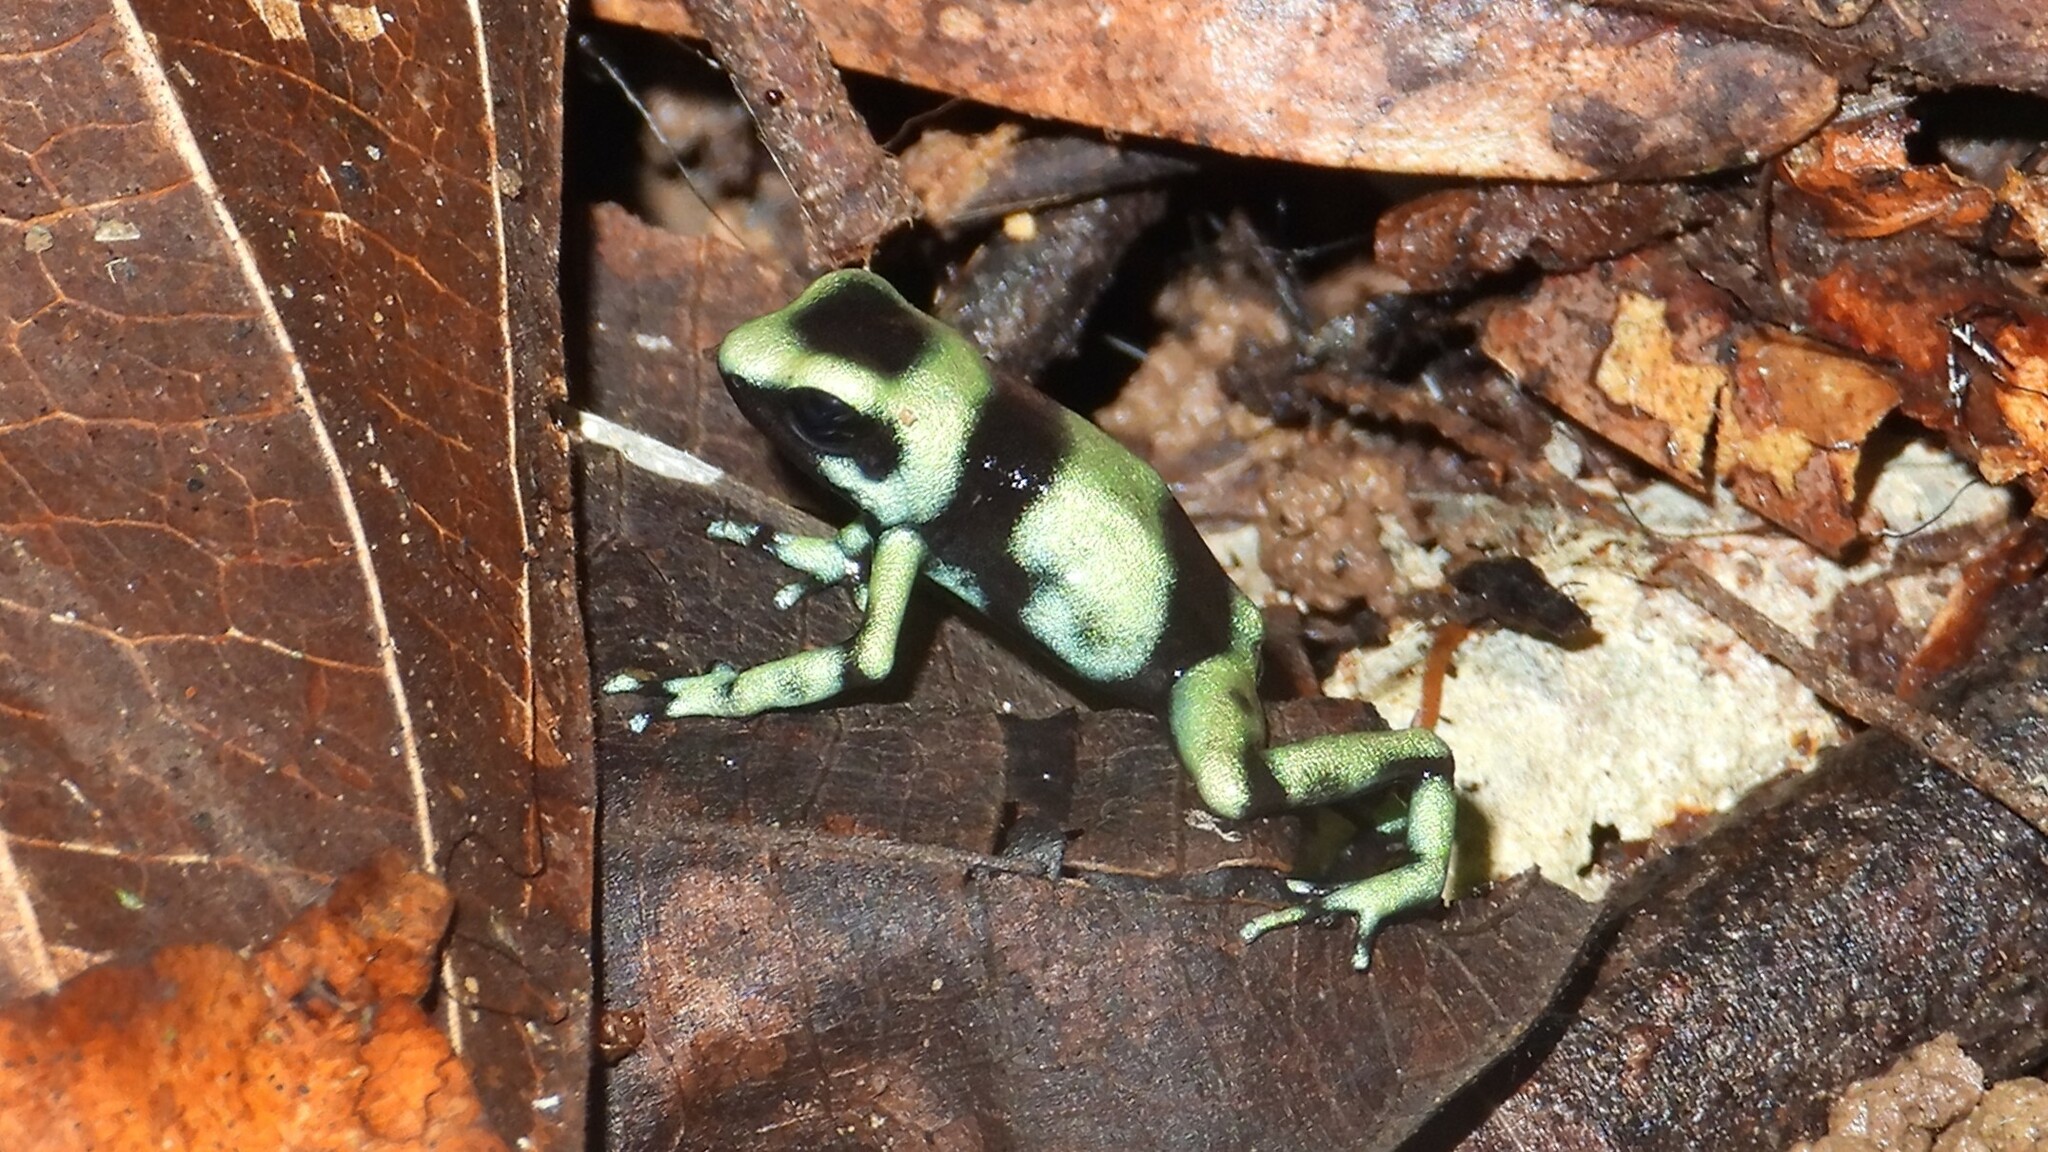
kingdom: Animalia
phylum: Chordata
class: Amphibia
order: Anura
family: Dendrobatidae
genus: Dendrobates
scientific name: Dendrobates auratus
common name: Green and black poison dart frog
